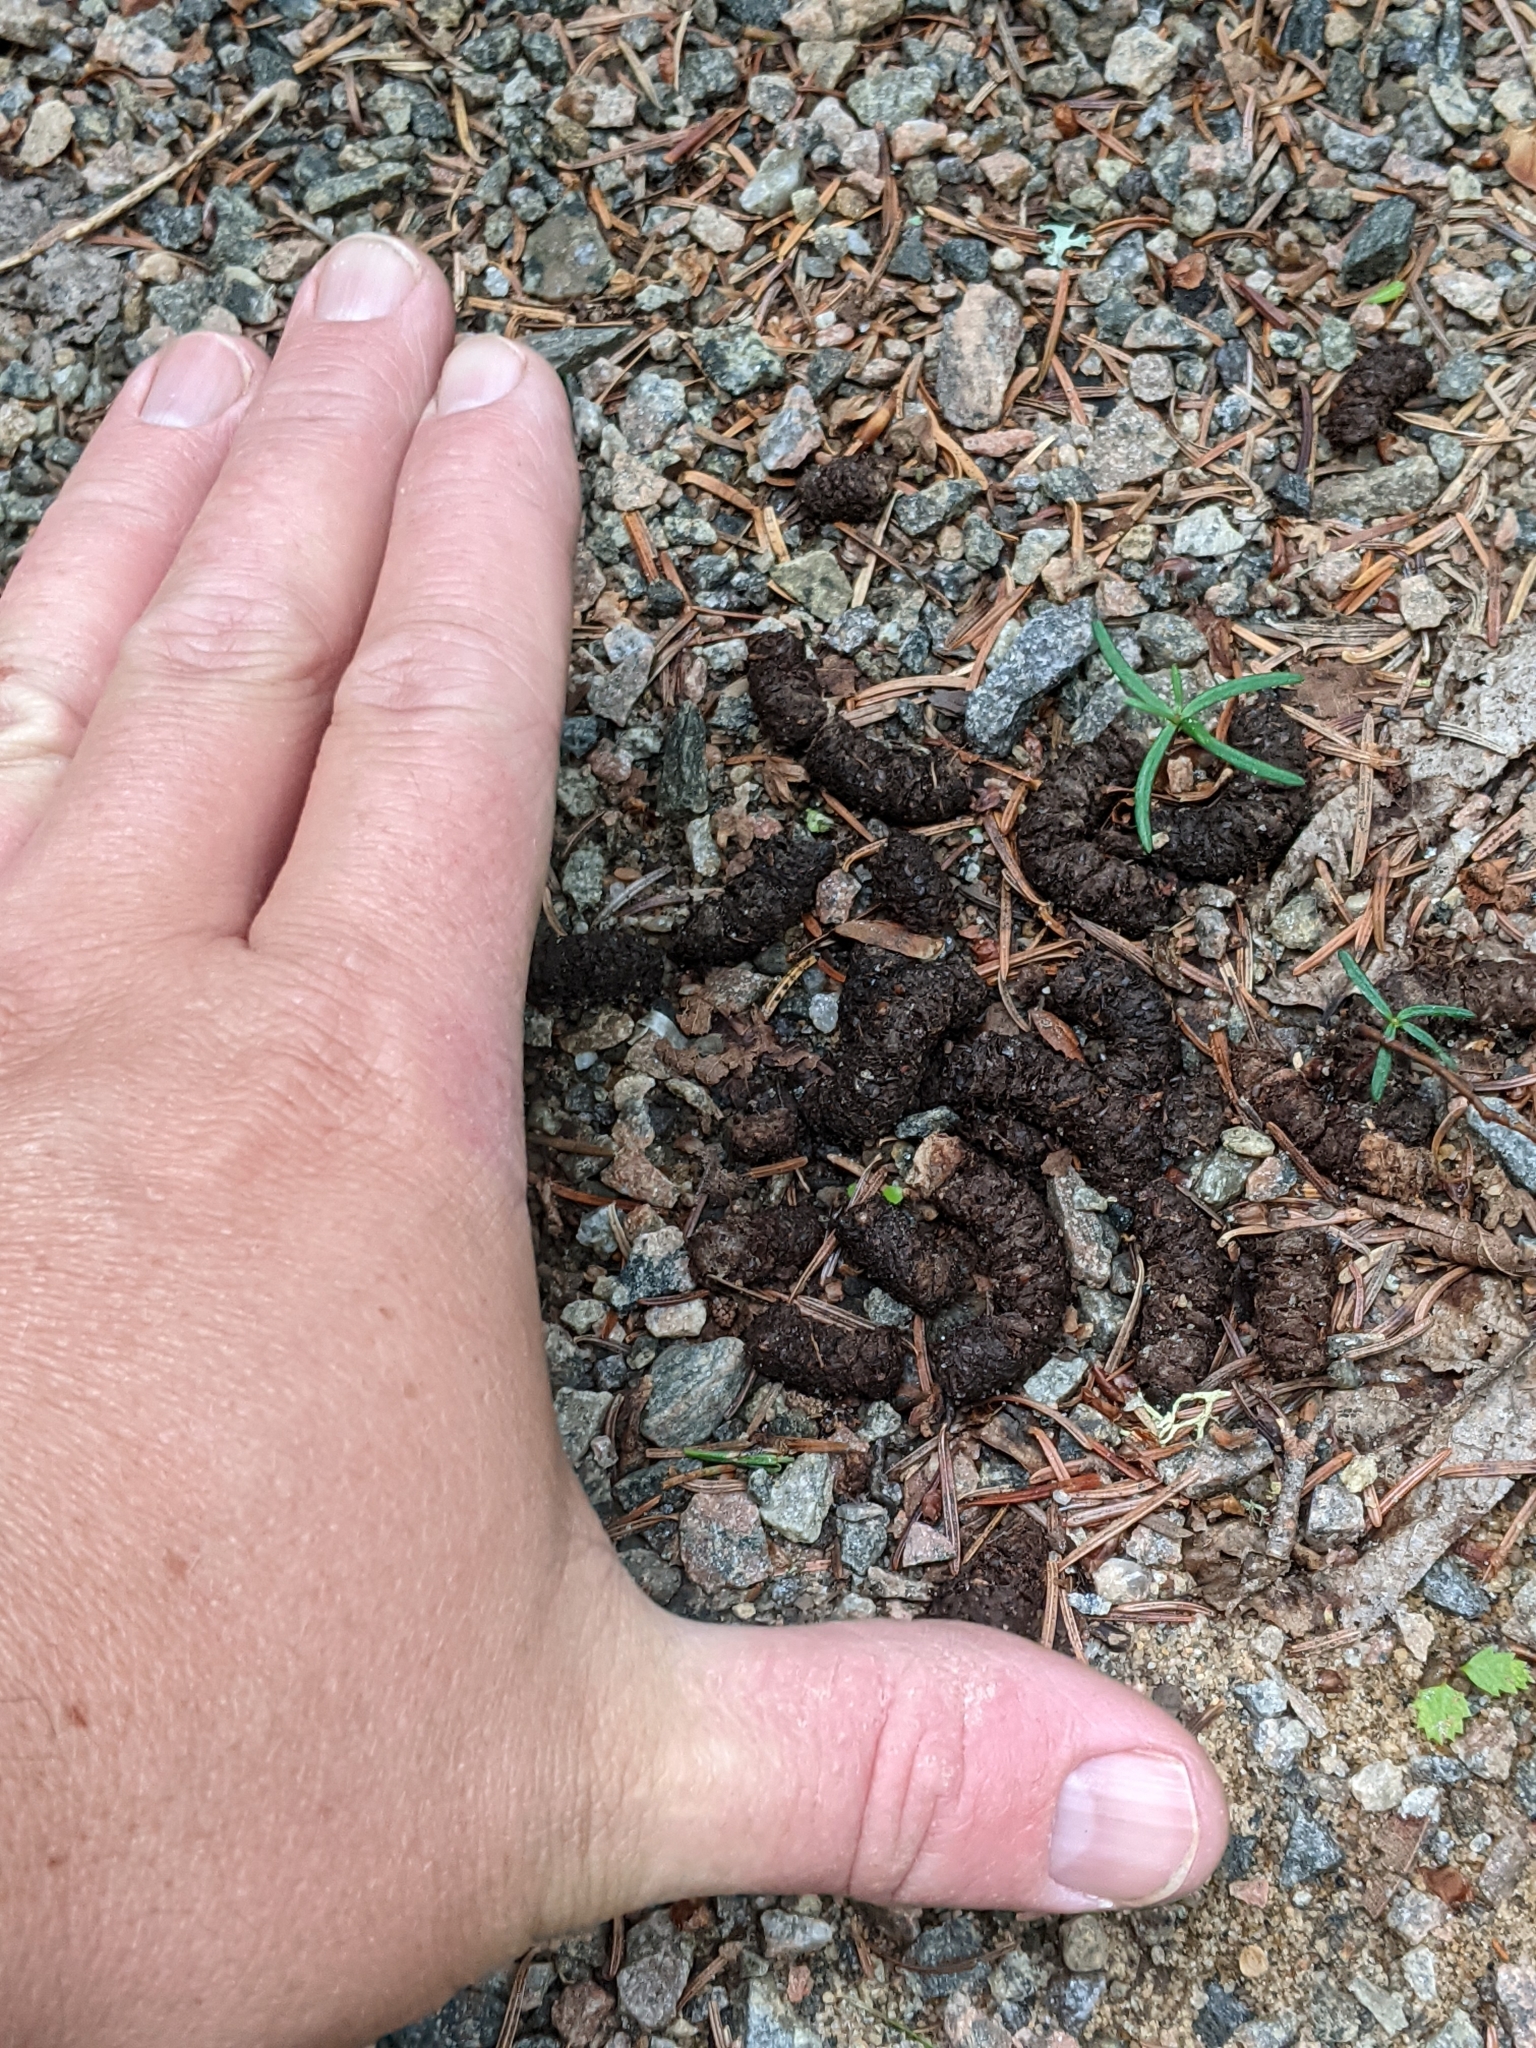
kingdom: Animalia
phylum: Chordata
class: Aves
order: Galliformes
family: Phasianidae
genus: Bonasa
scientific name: Bonasa umbellus
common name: Ruffed grouse
